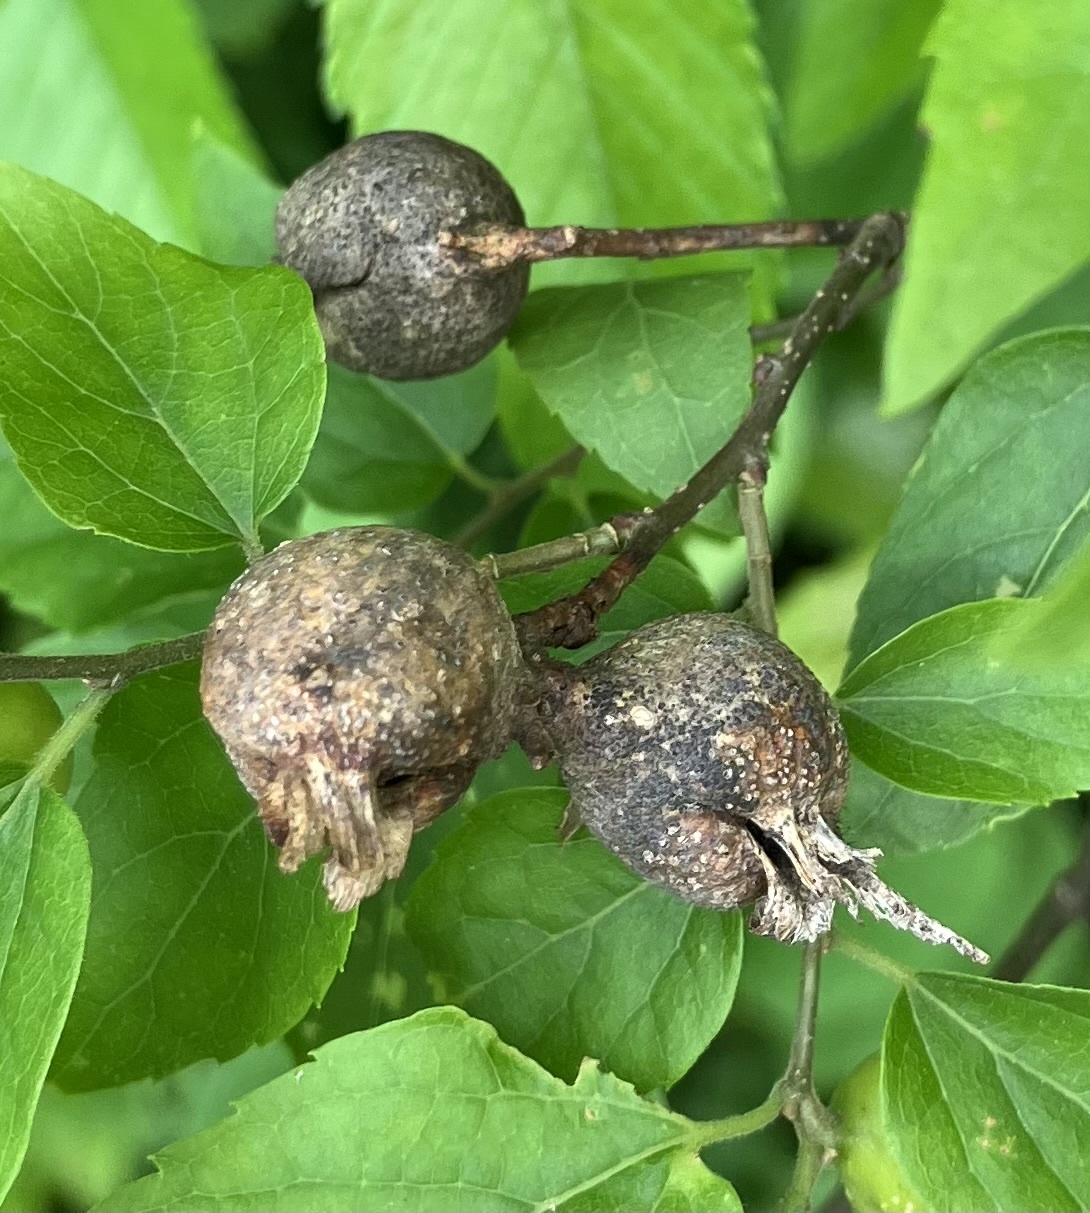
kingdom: Animalia
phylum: Arthropoda
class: Insecta
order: Hemiptera
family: Aphalaridae
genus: Pachypsylla
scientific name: Pachypsylla venusta
